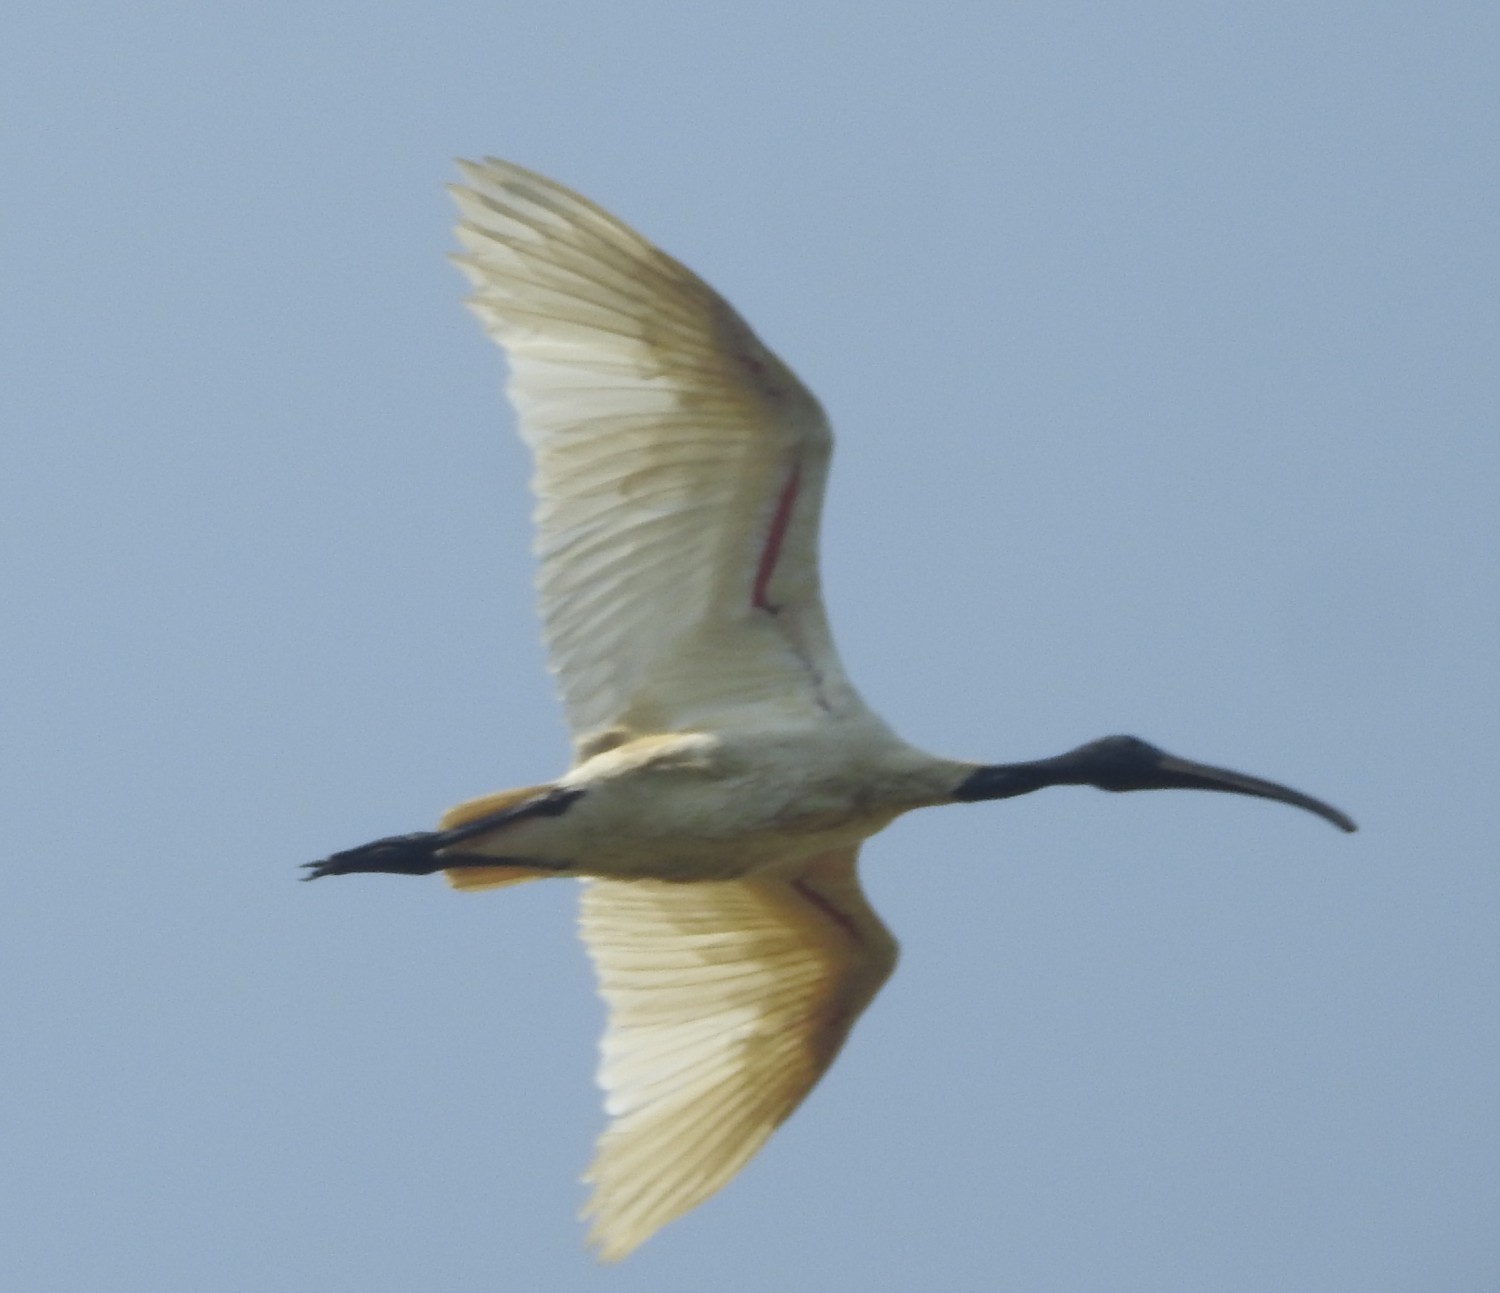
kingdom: Animalia
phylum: Chordata
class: Aves
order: Pelecaniformes
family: Threskiornithidae
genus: Threskiornis
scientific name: Threskiornis melanocephalus
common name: Black-headed ibis
